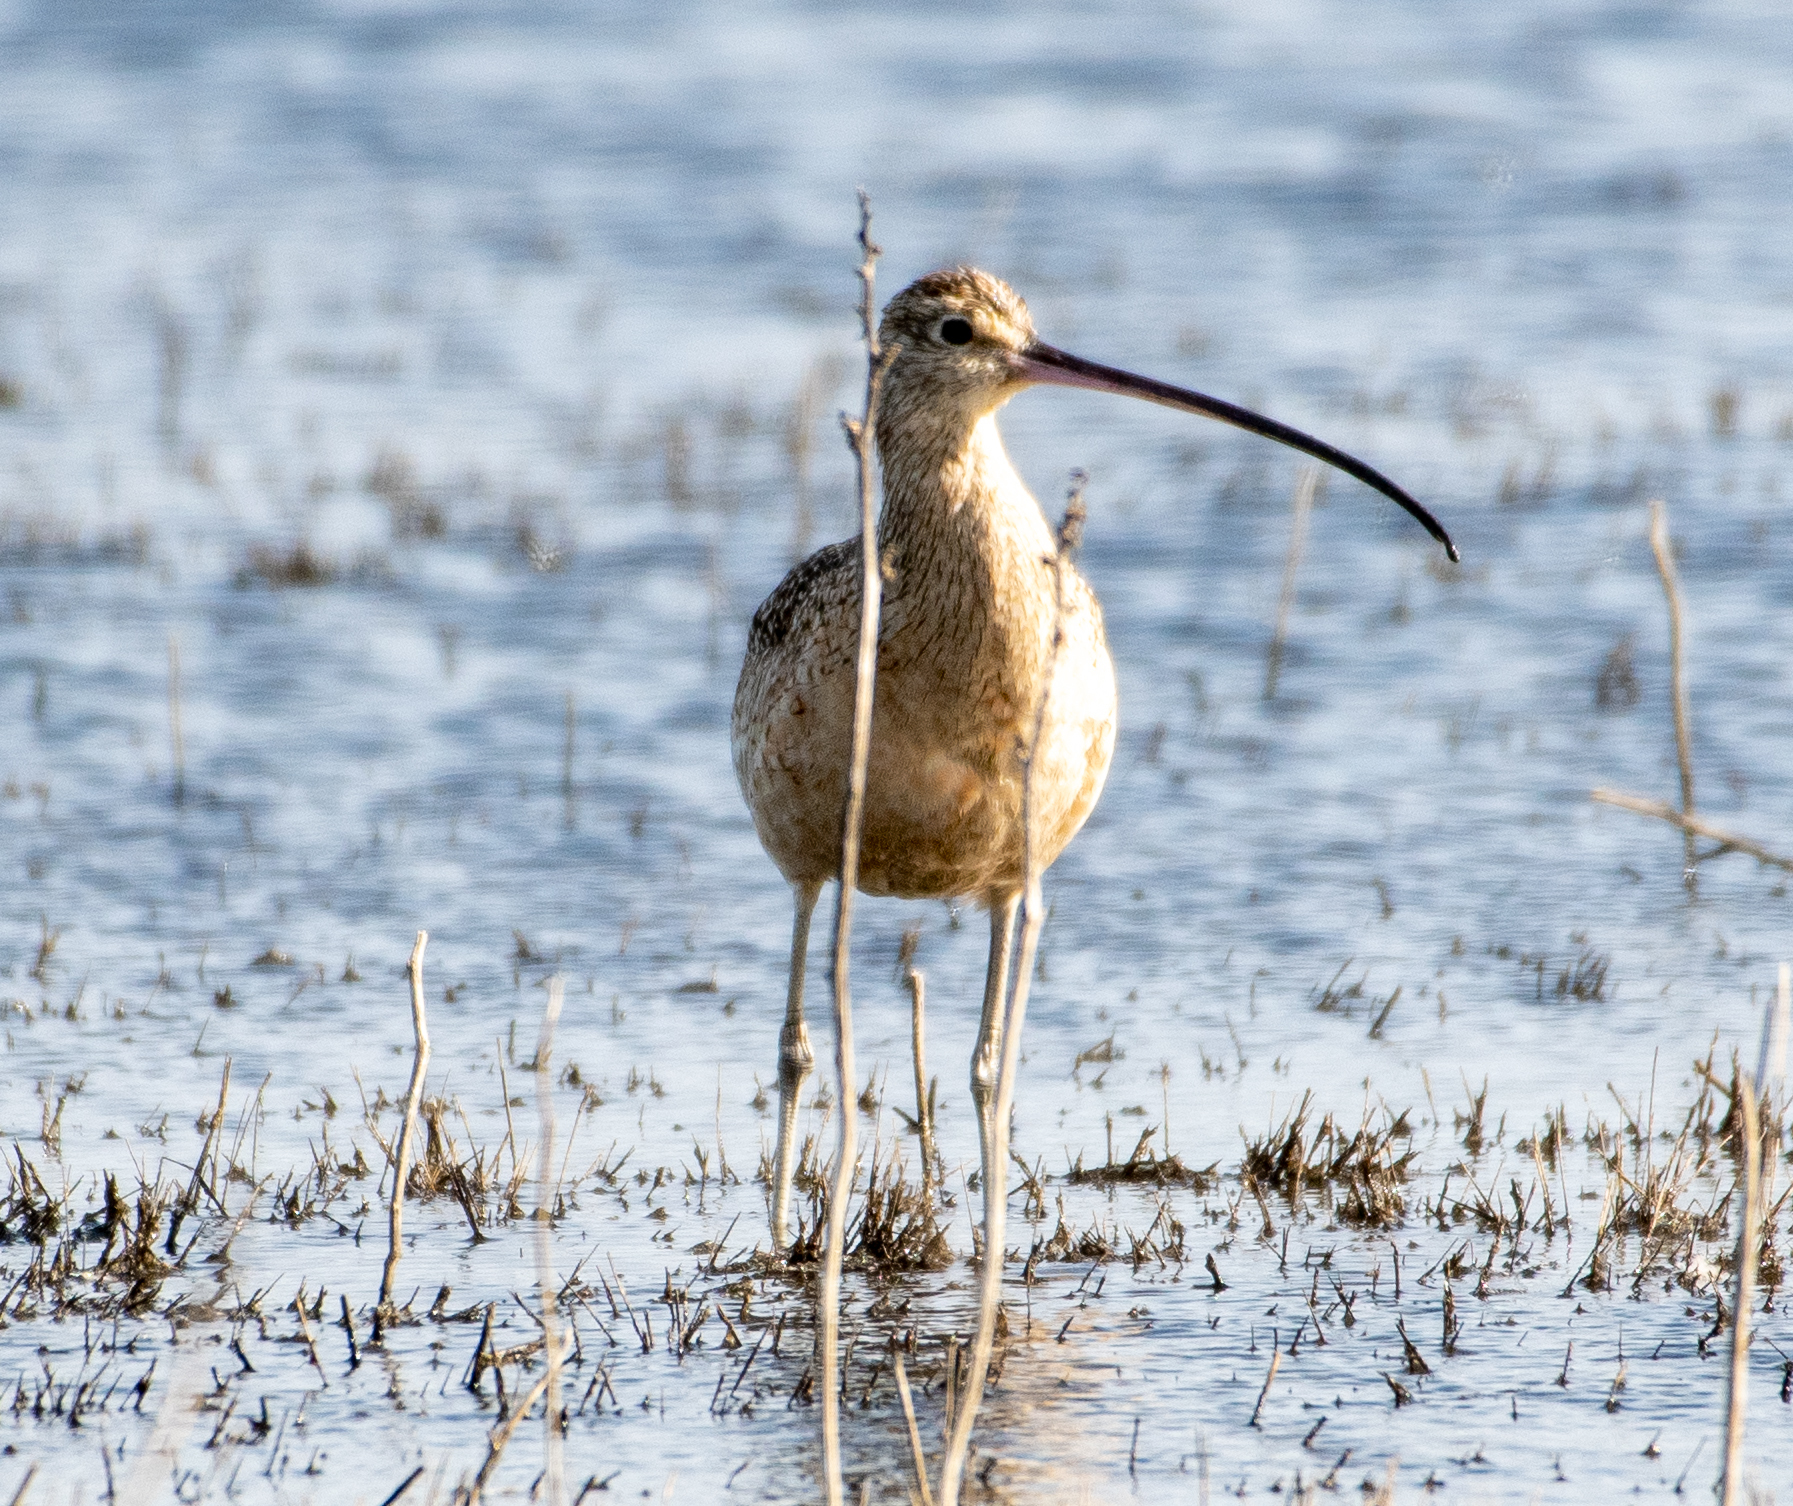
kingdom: Animalia
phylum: Chordata
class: Aves
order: Charadriiformes
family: Scolopacidae
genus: Numenius
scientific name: Numenius americanus
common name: Long-billed curlew
